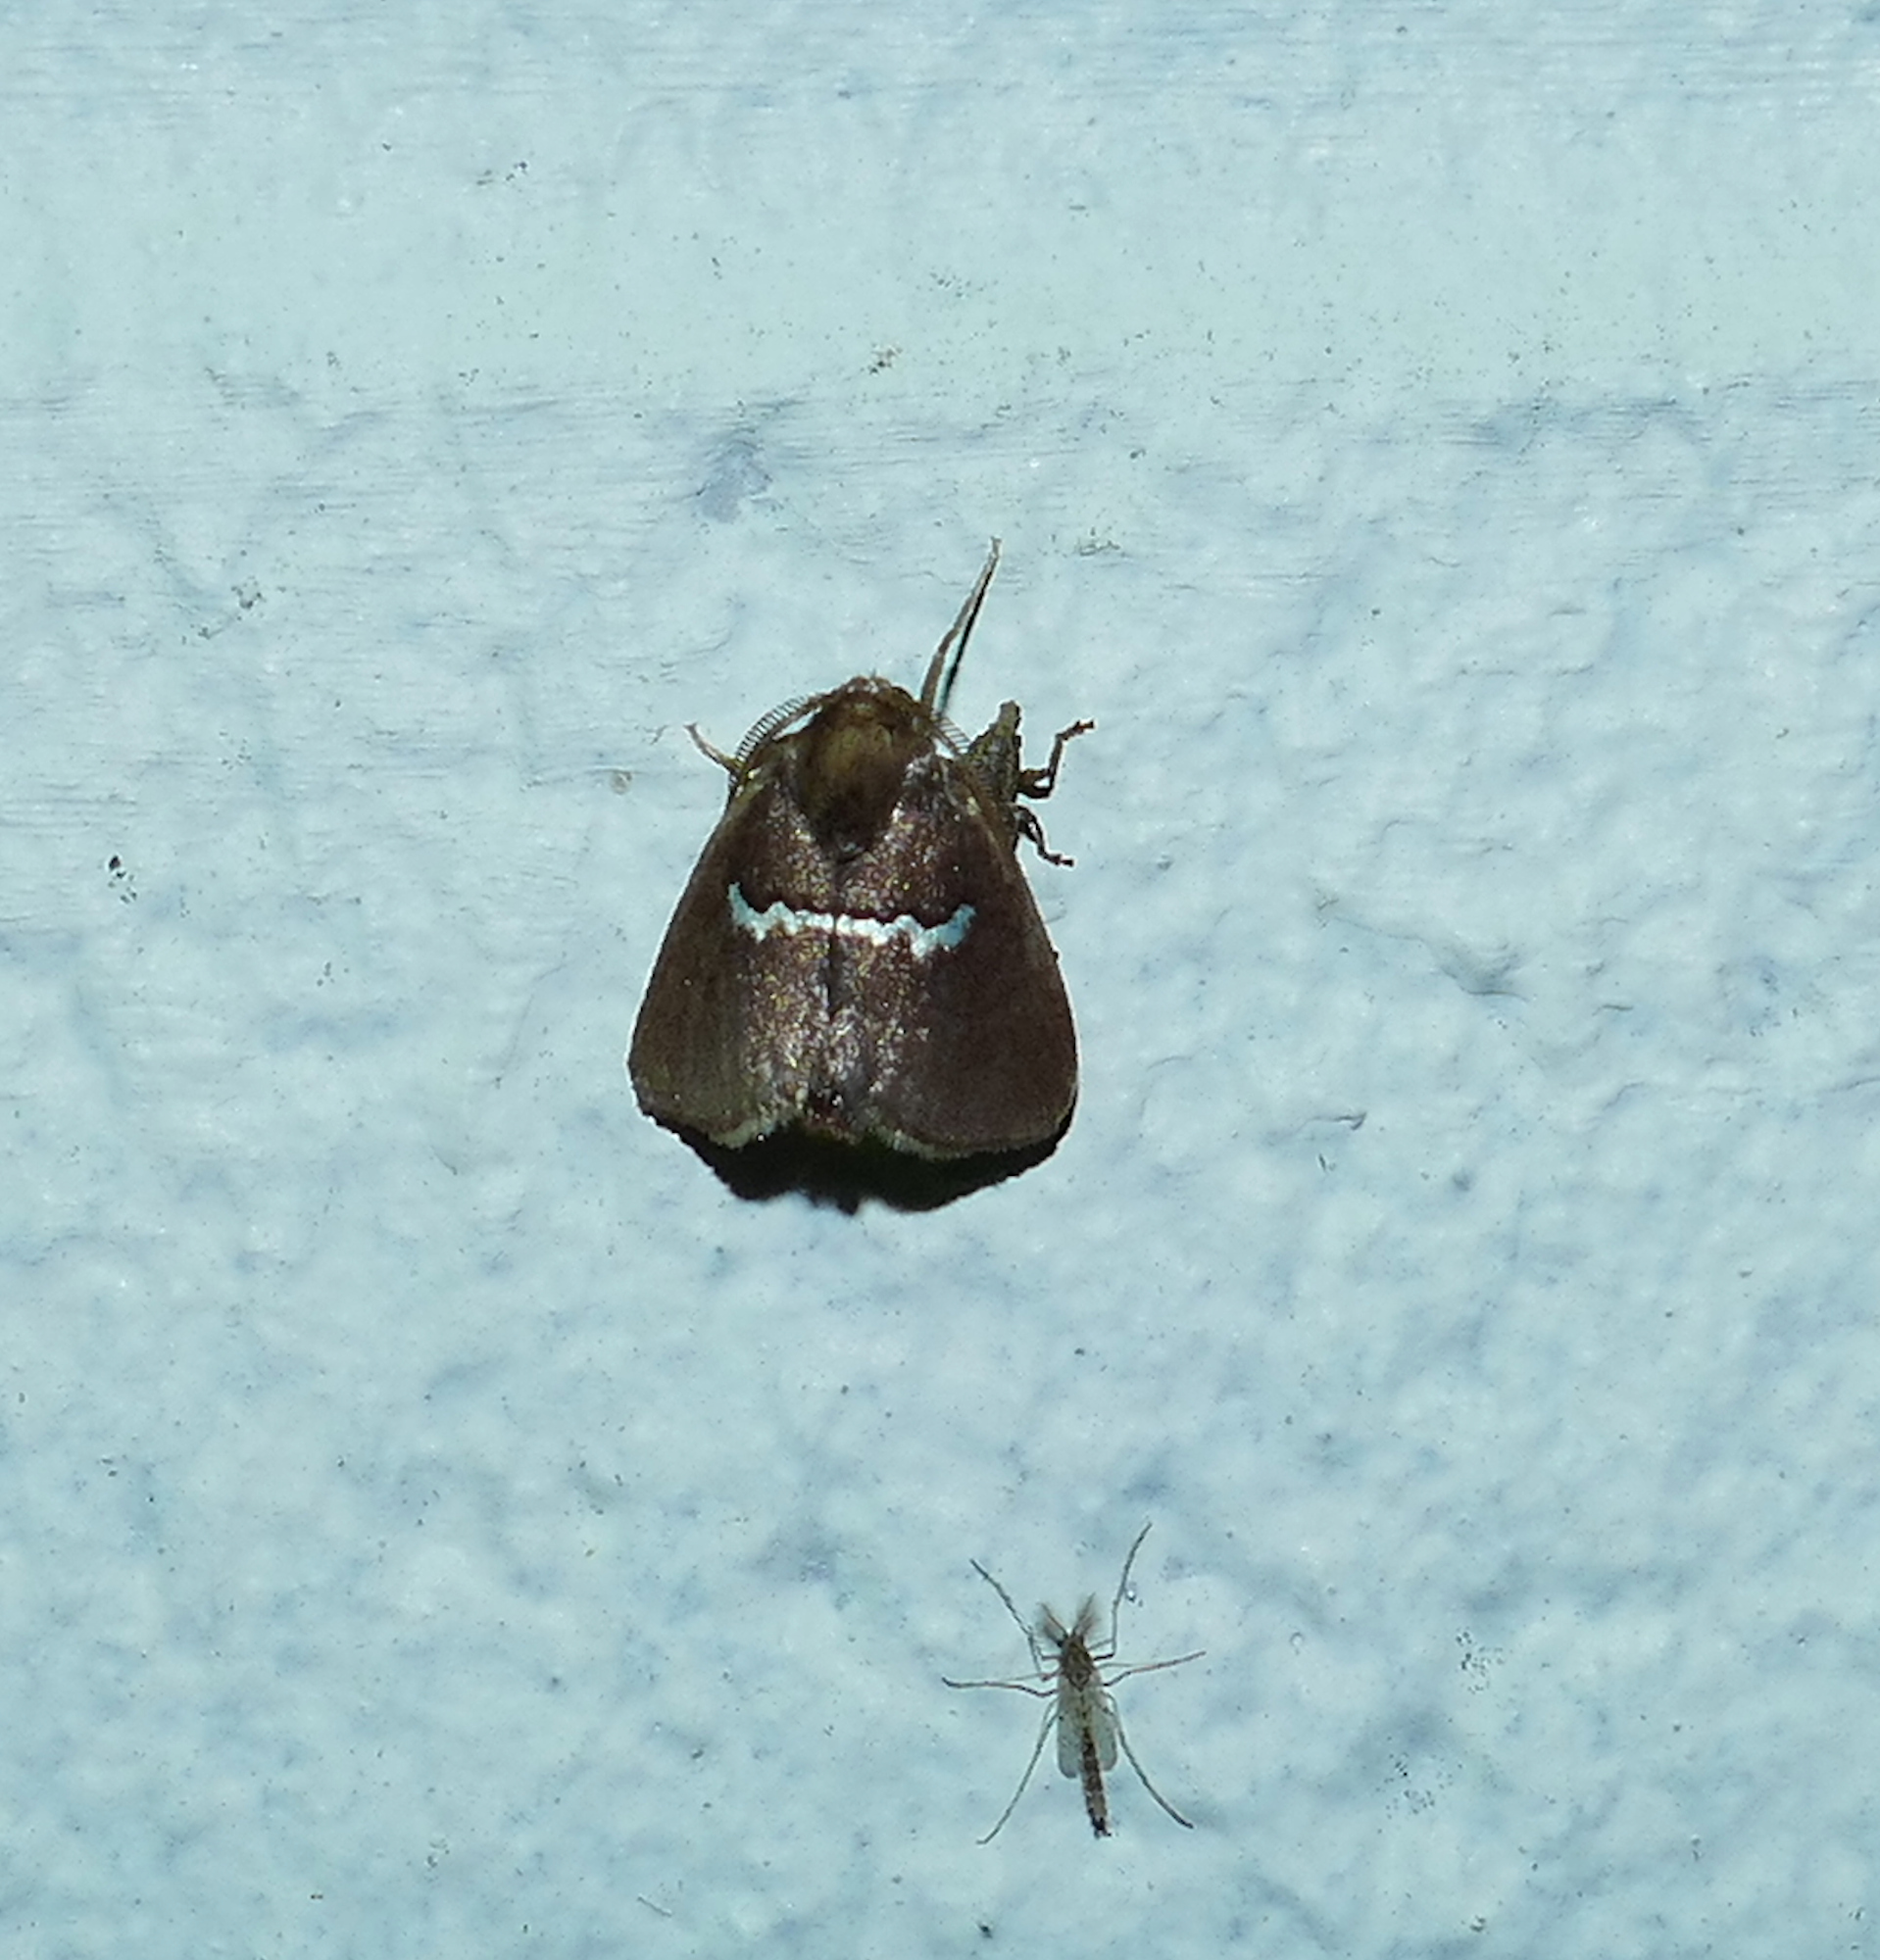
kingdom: Animalia
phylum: Arthropoda
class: Insecta
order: Lepidoptera
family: Limacodidae
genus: Monoleuca
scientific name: Monoleuca semifascia
